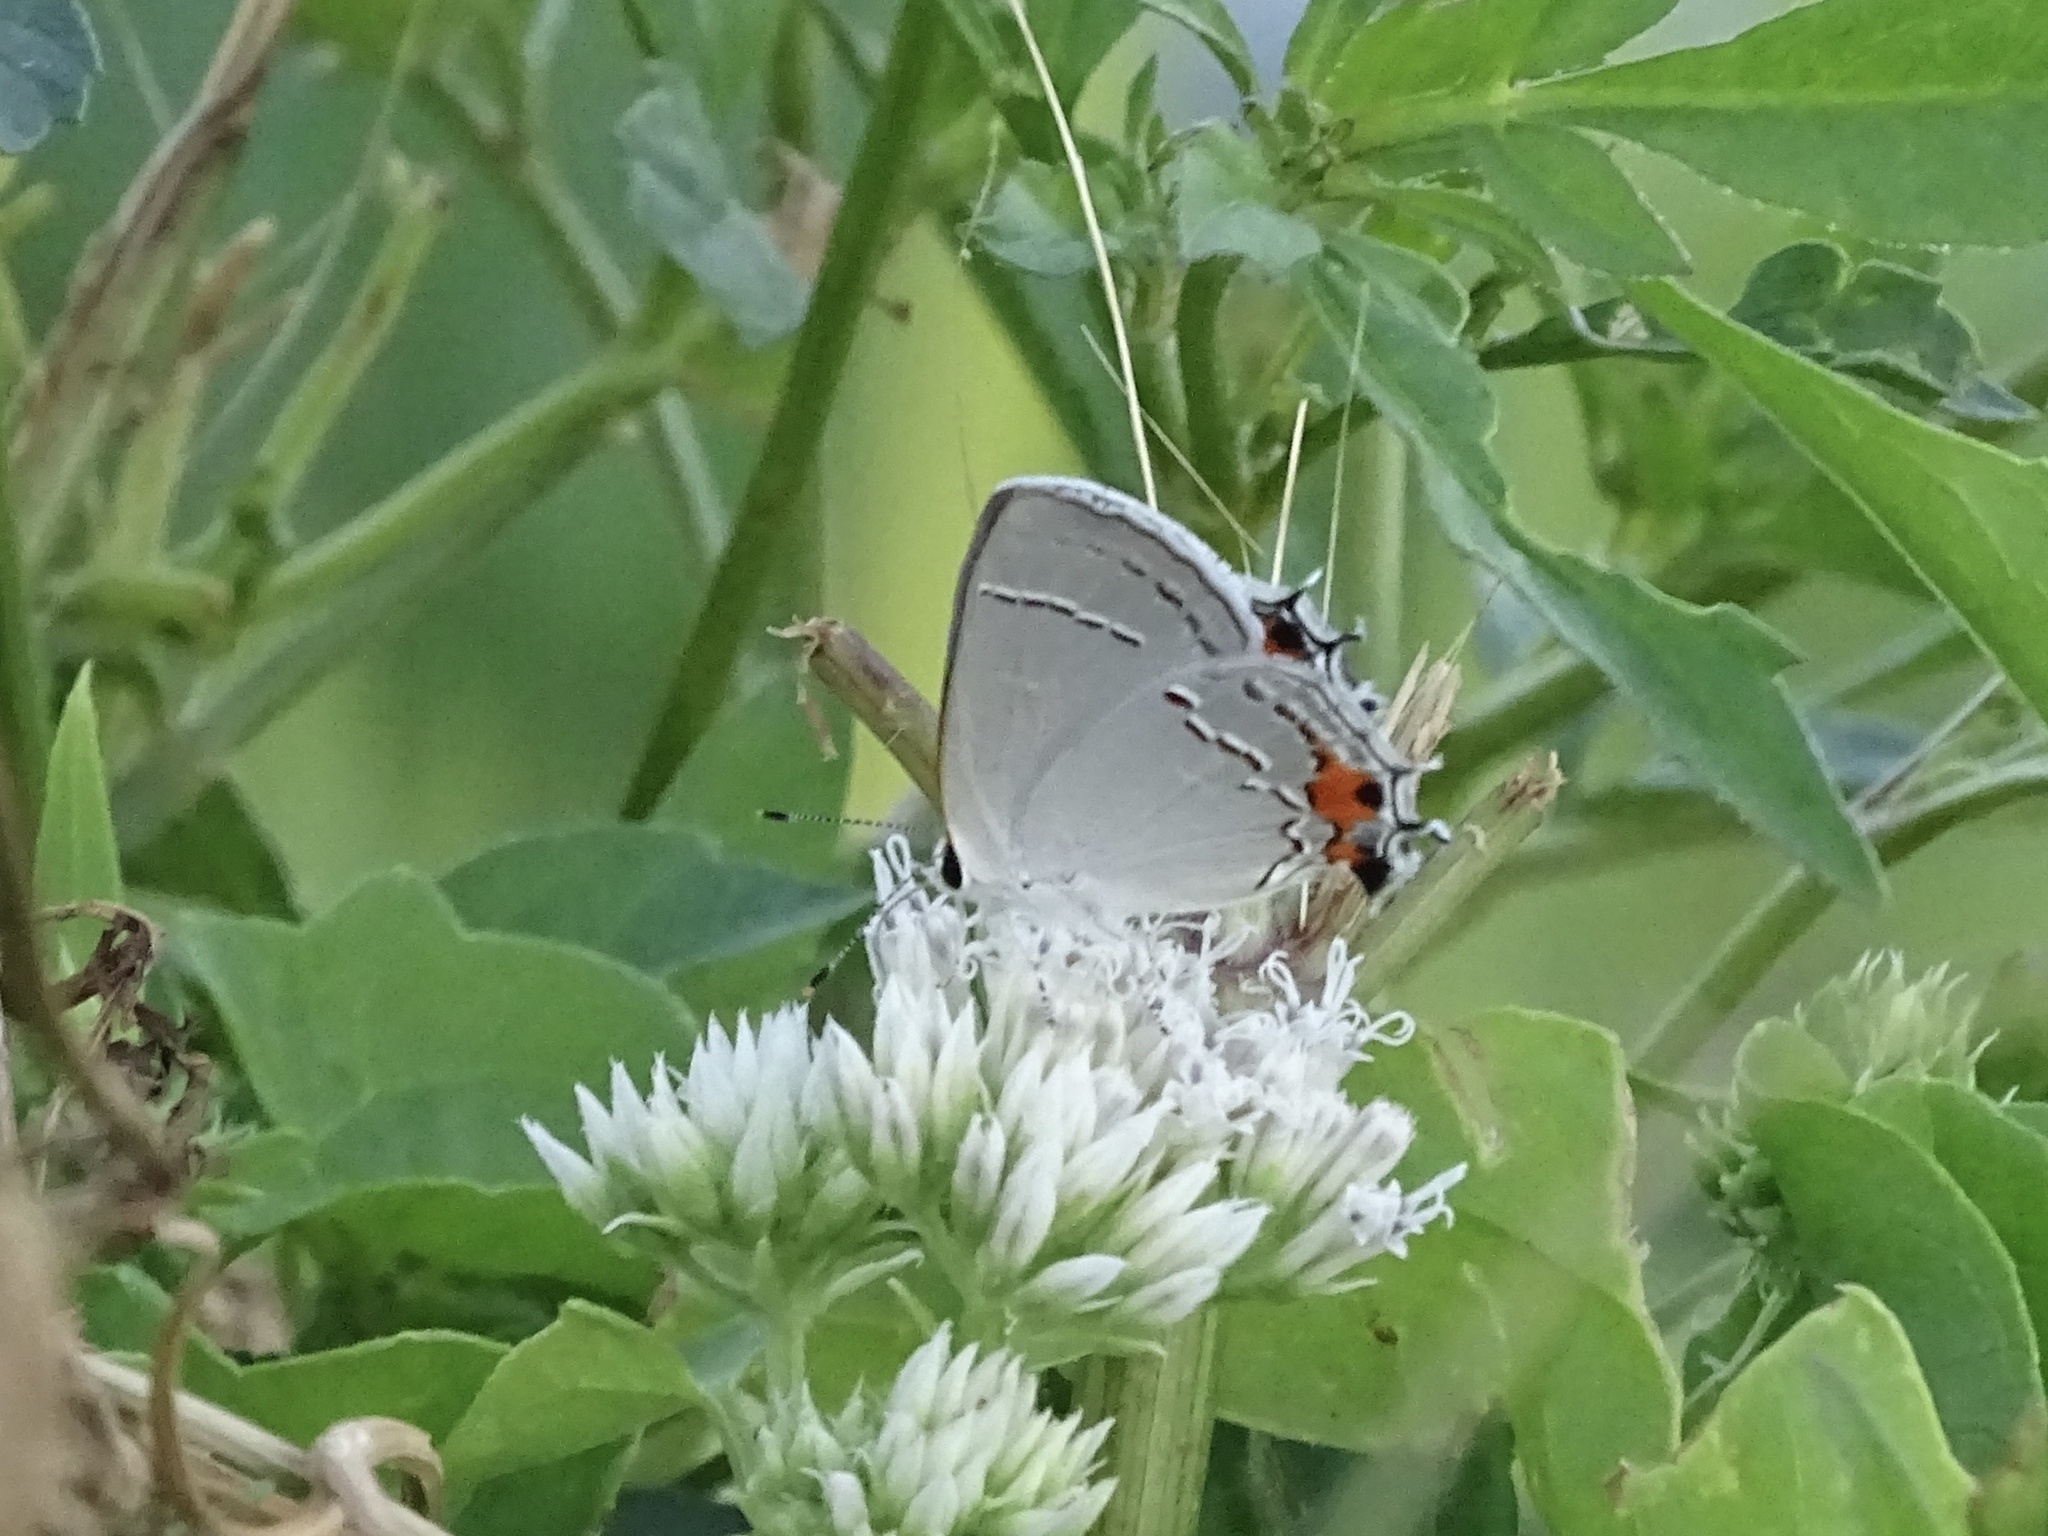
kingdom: Animalia
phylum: Arthropoda
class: Insecta
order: Lepidoptera
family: Lycaenidae
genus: Strymon
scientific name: Strymon melinus
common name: Gray hairstreak
